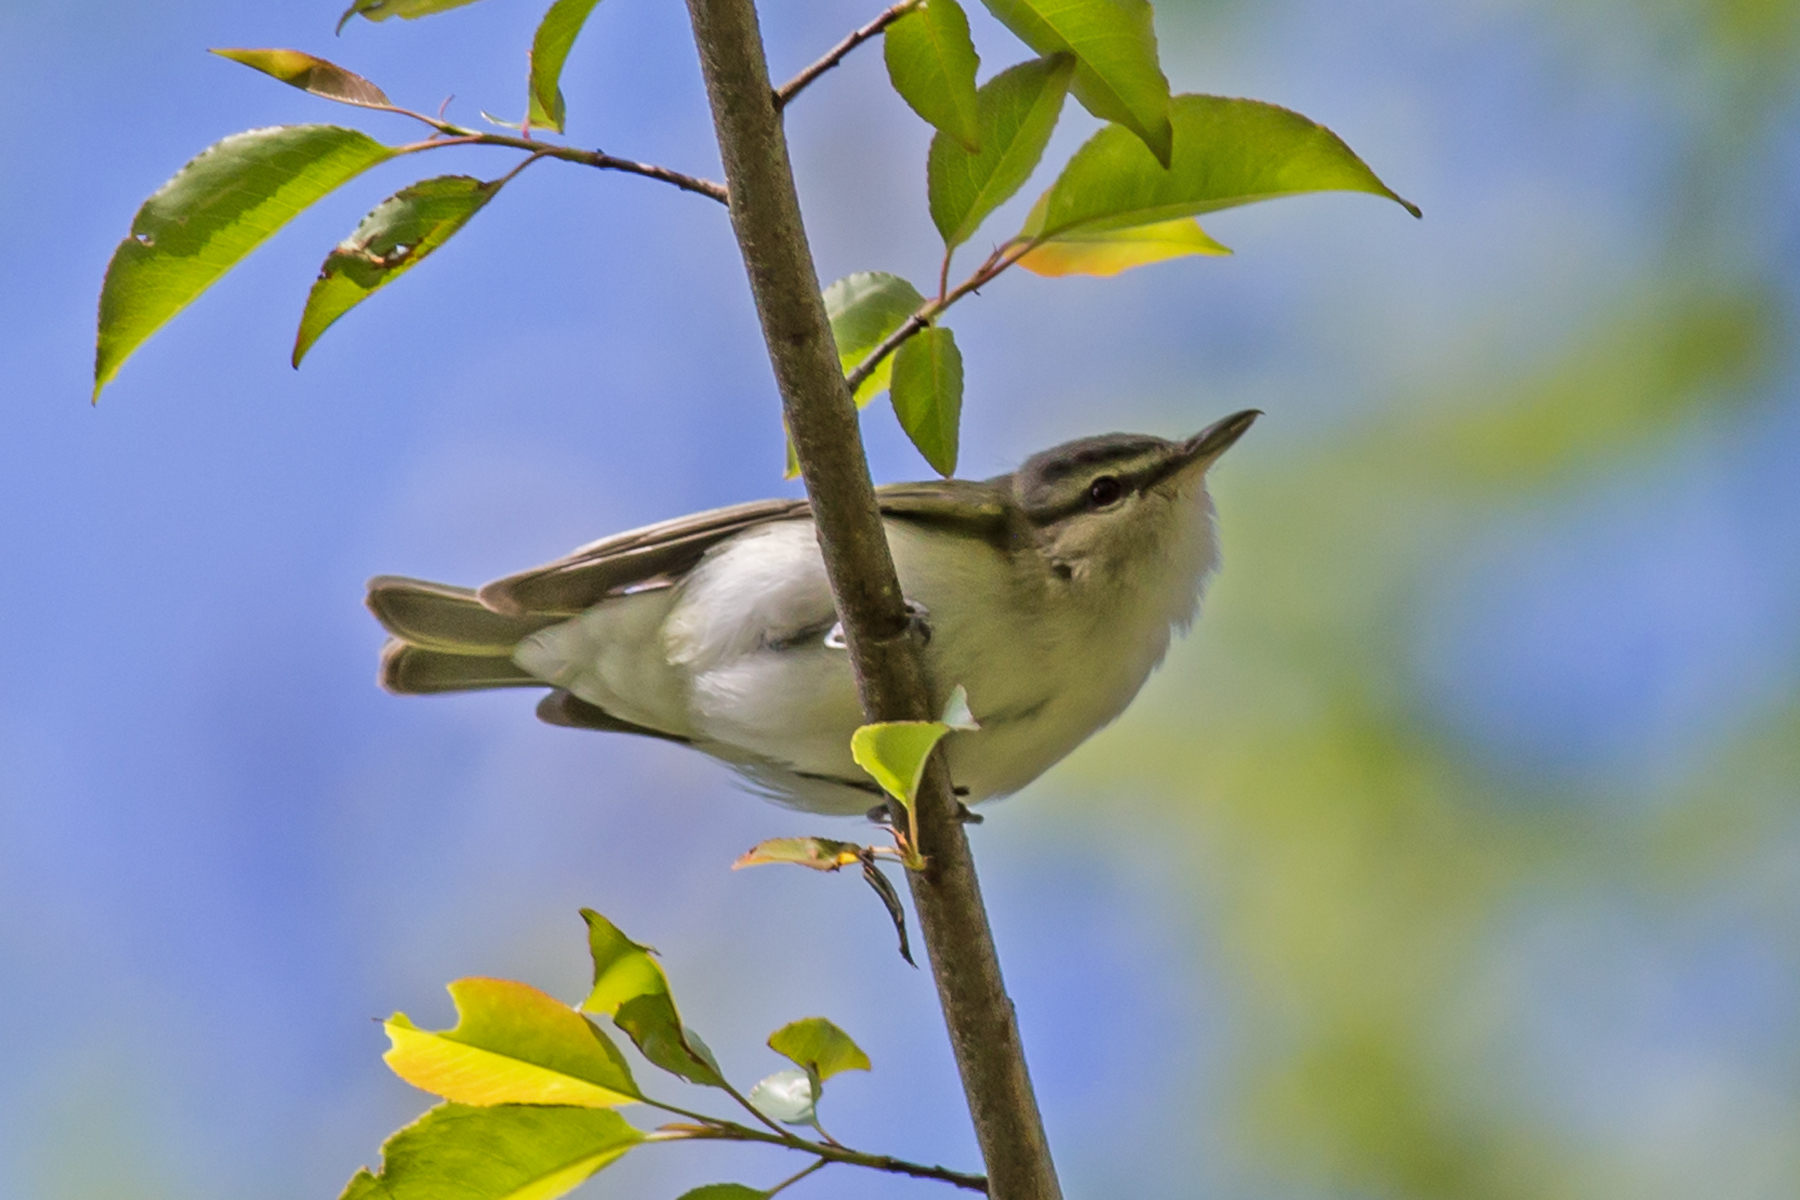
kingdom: Animalia
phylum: Chordata
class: Aves
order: Passeriformes
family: Vireonidae
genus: Vireo
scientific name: Vireo olivaceus
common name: Red-eyed vireo
